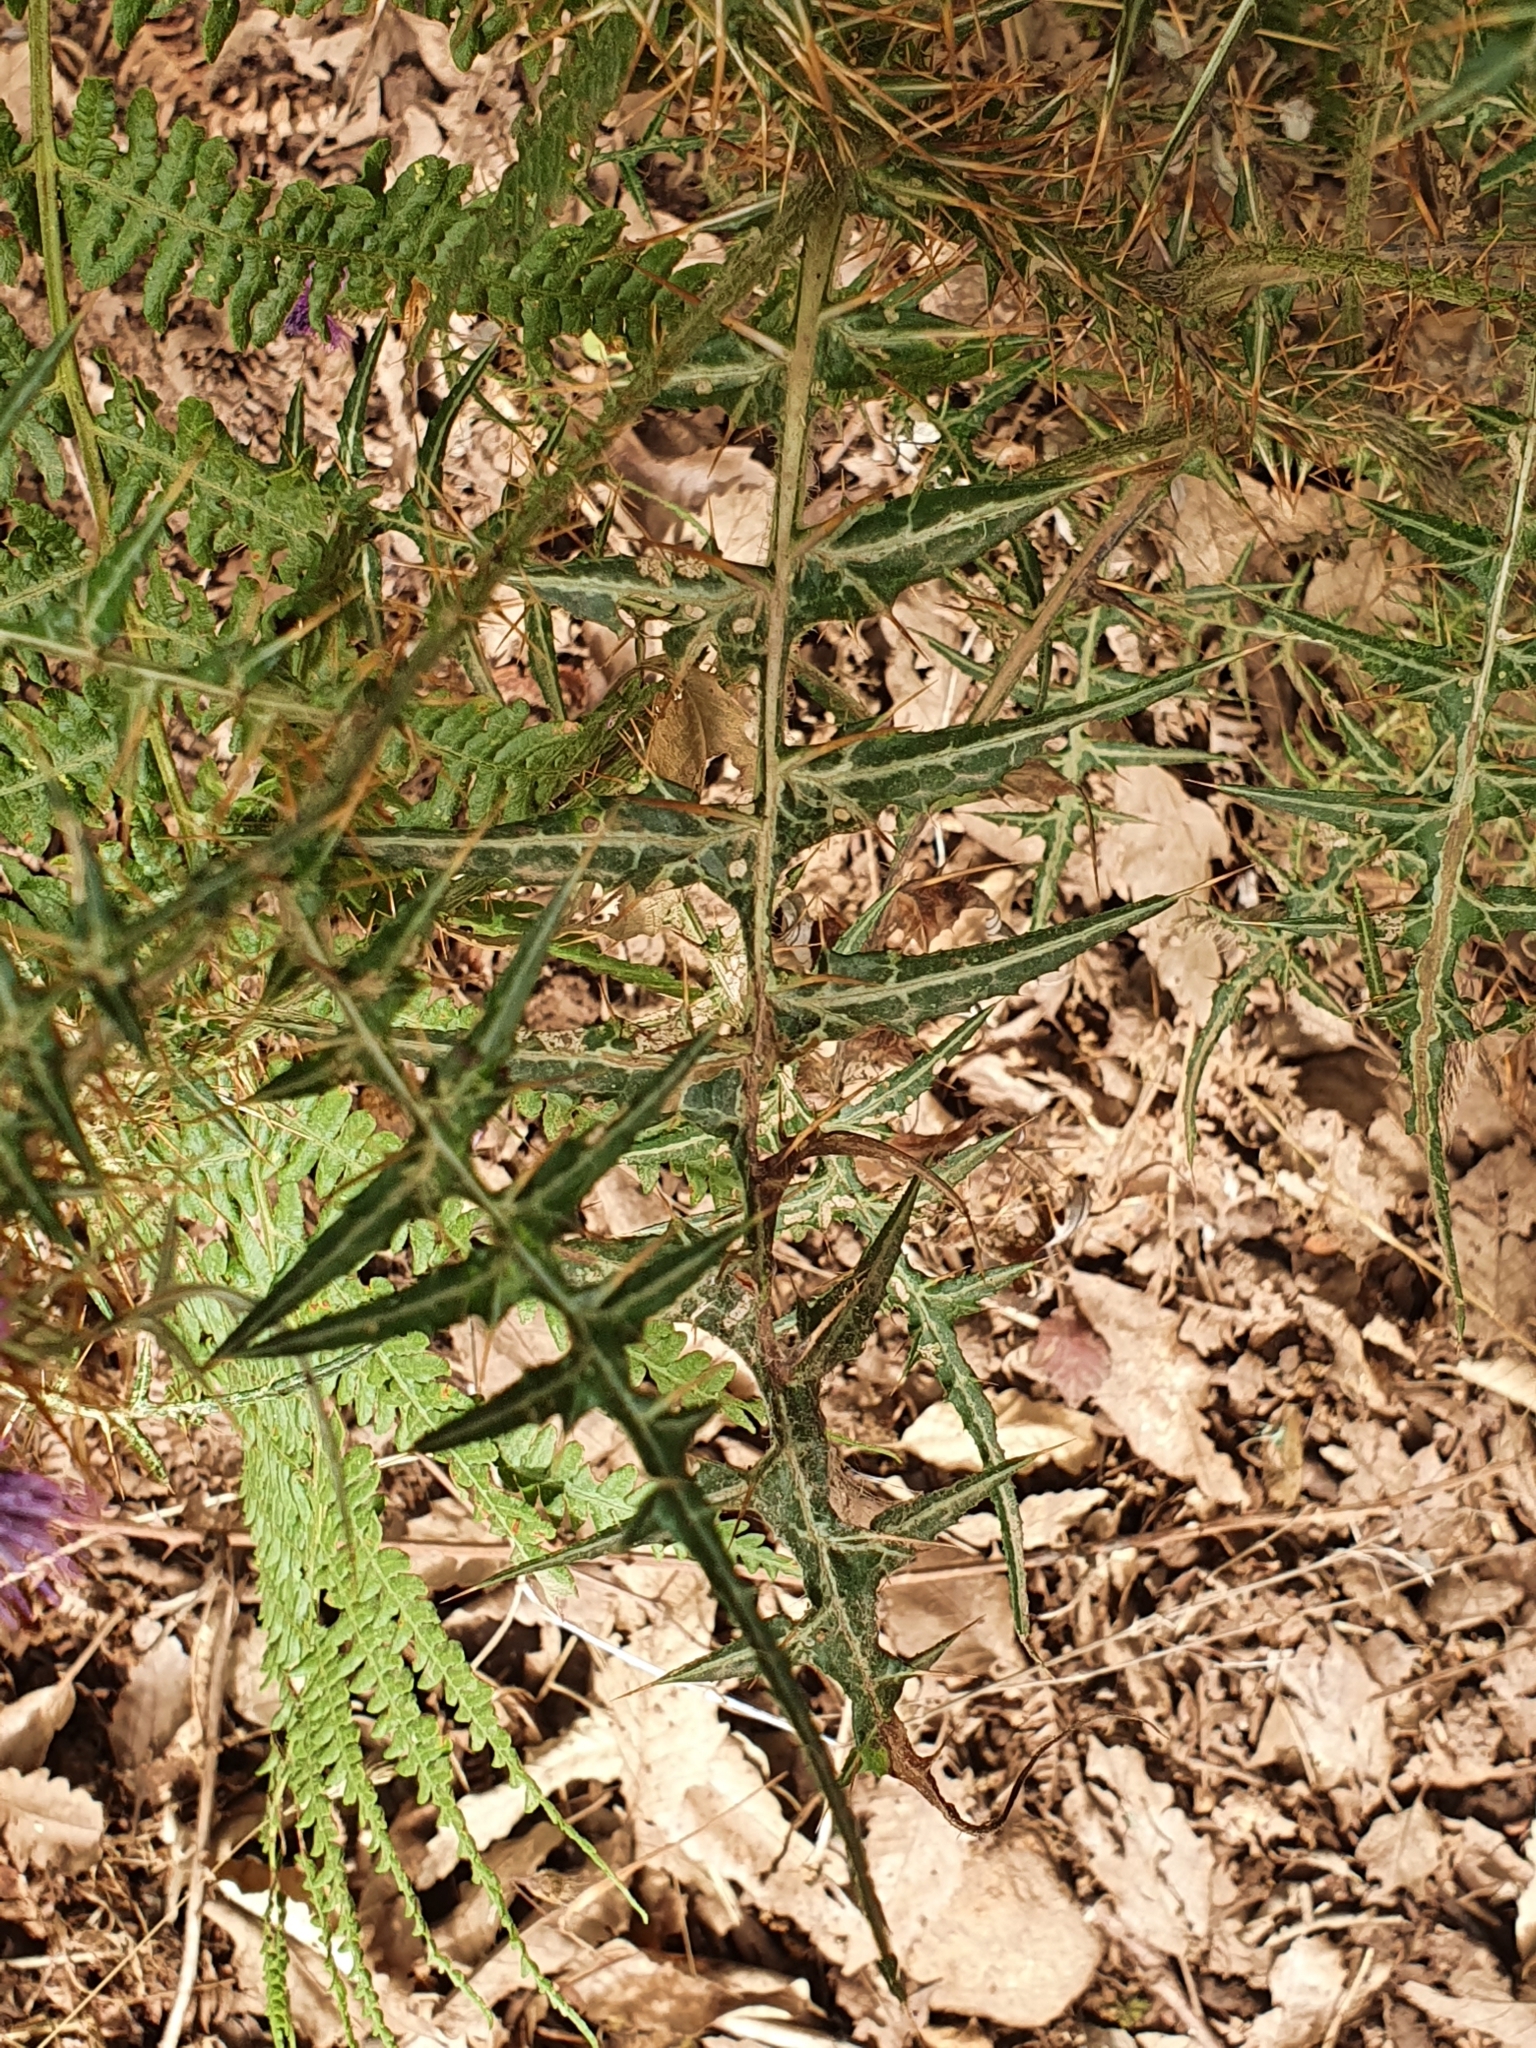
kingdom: Plantae
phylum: Tracheophyta
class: Magnoliopsida
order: Asterales
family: Asteraceae
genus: Galactites
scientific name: Galactites mutabilis
